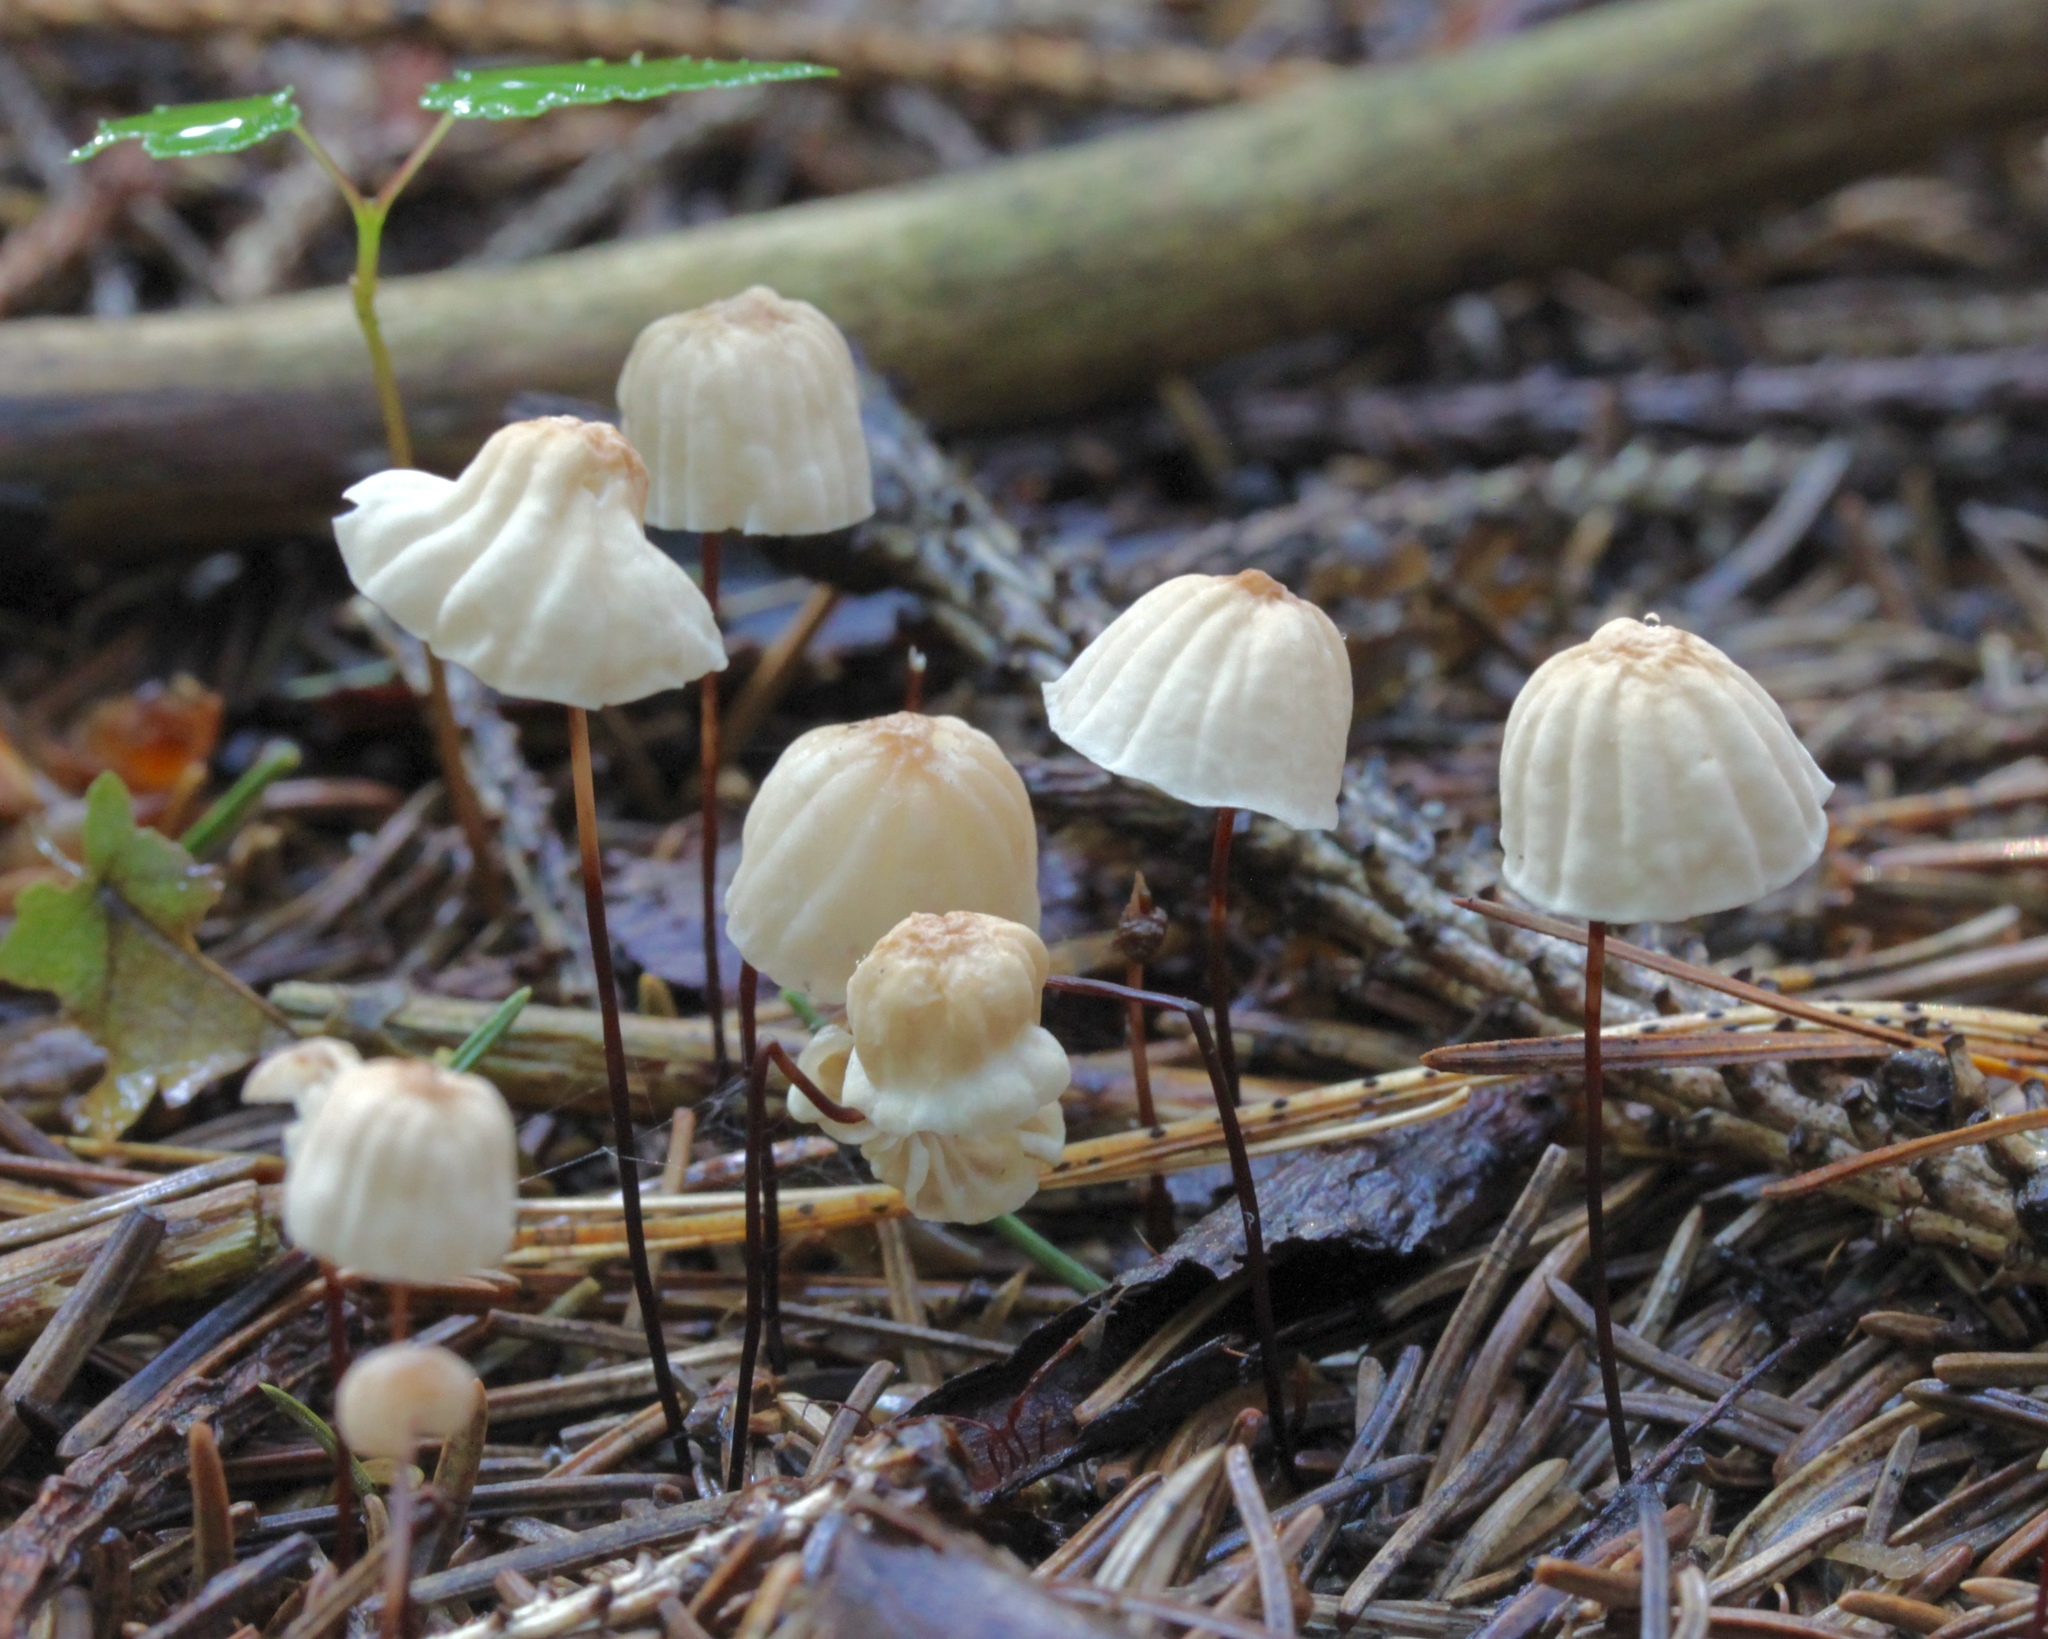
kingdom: Fungi
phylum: Basidiomycota
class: Agaricomycetes
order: Agaricales
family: Marasmiaceae
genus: Marasmius
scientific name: Marasmius siccus
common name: Orange pinwheel
